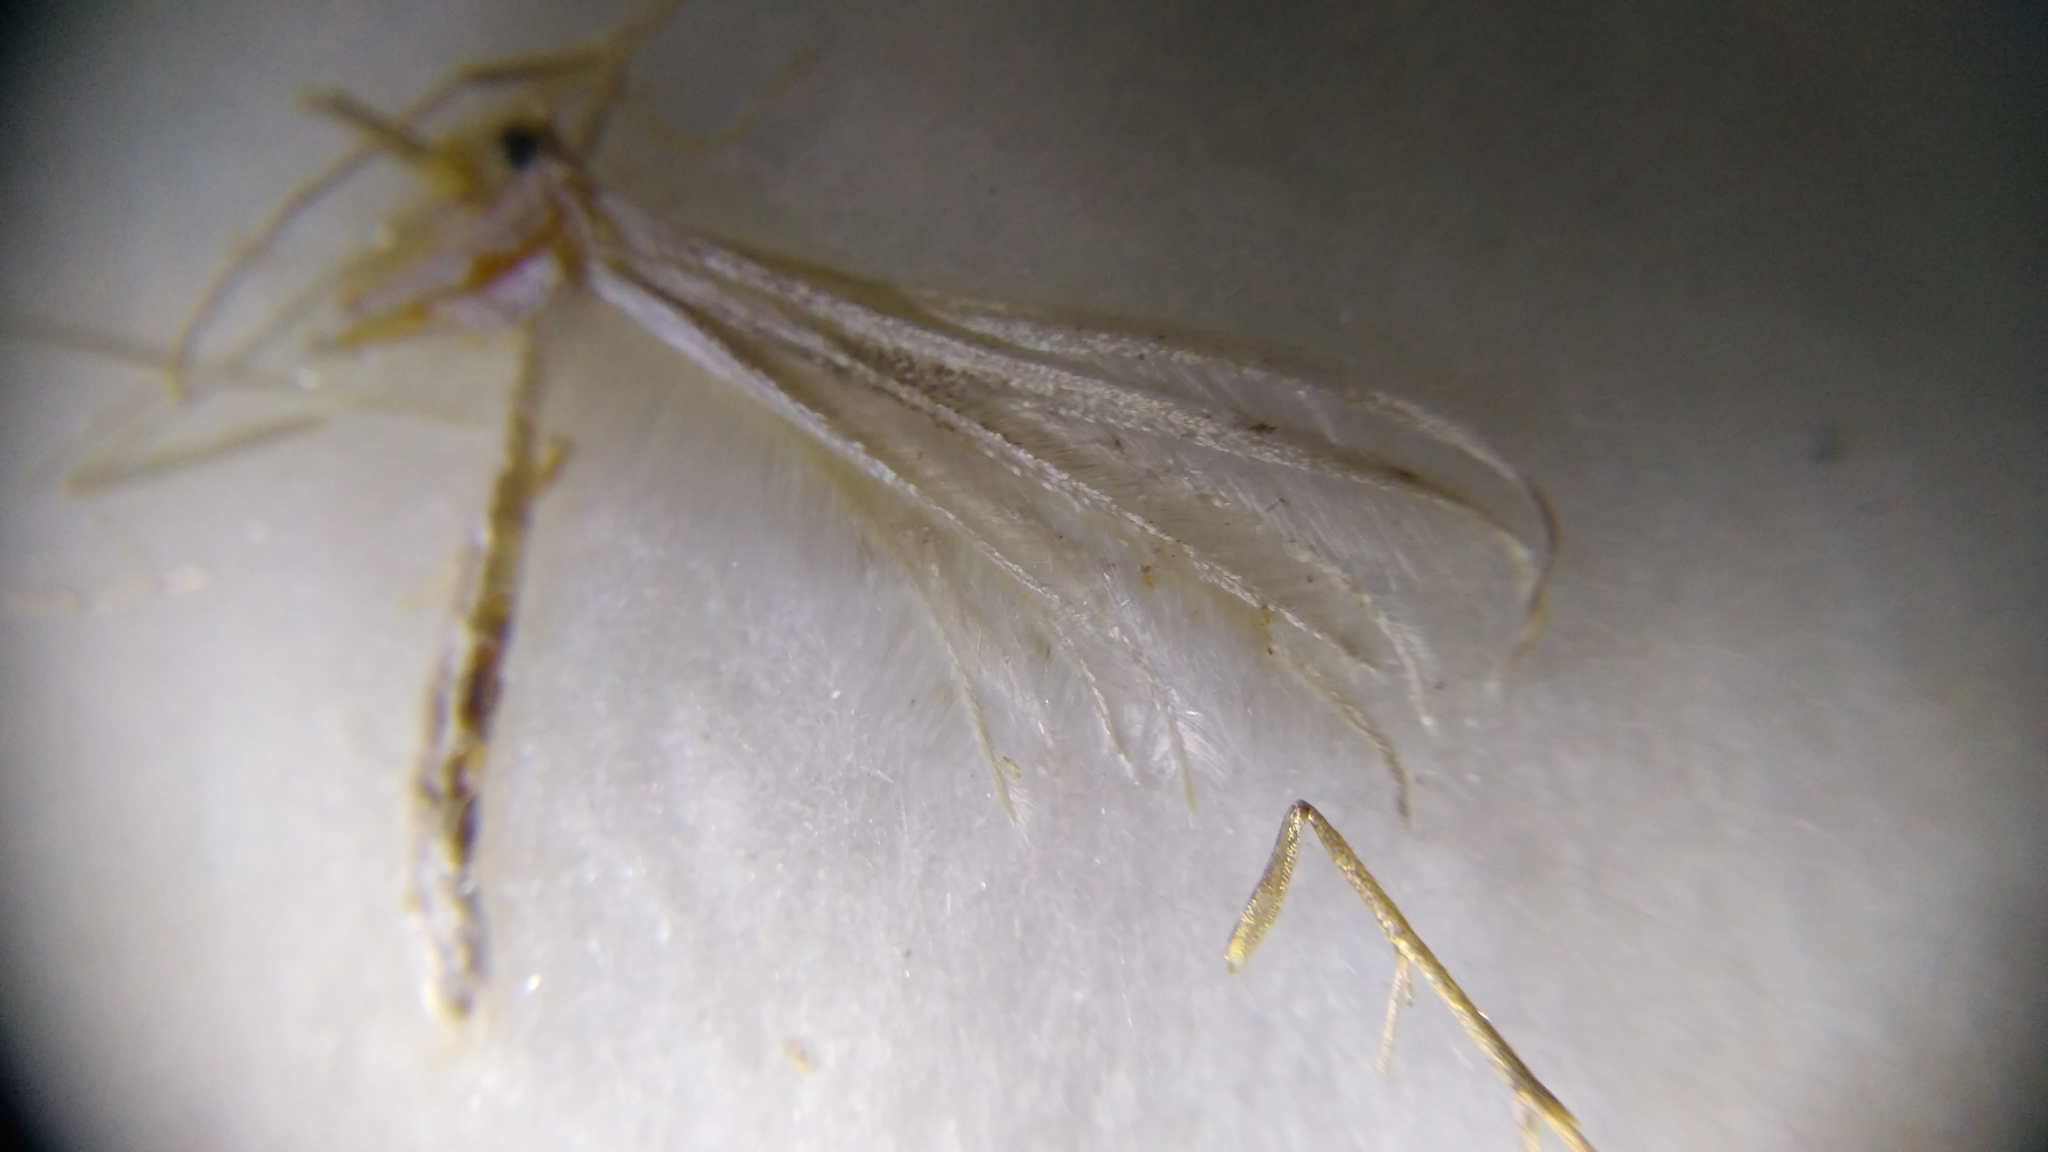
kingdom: Animalia
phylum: Arthropoda
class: Insecta
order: Lepidoptera
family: Pterophoridae
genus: Pterophorus
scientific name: Pterophorus pentadactyla
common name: White plume moth
